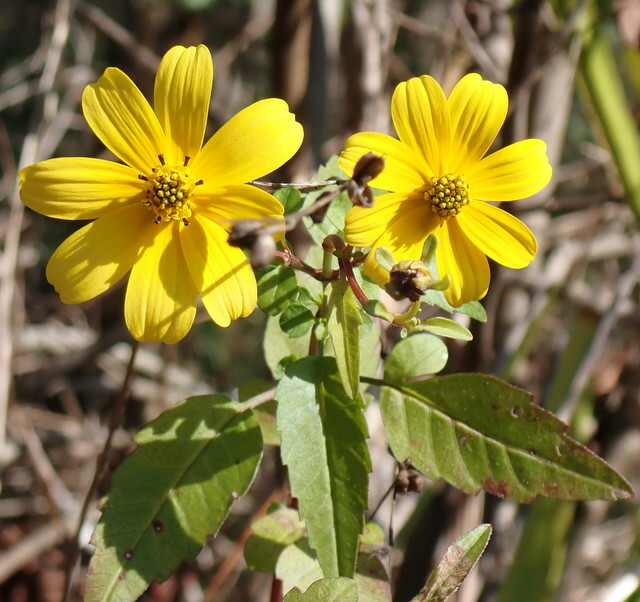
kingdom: Plantae
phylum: Tracheophyta
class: Magnoliopsida
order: Asterales
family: Asteraceae
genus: Bidens
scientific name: Bidens mitis
